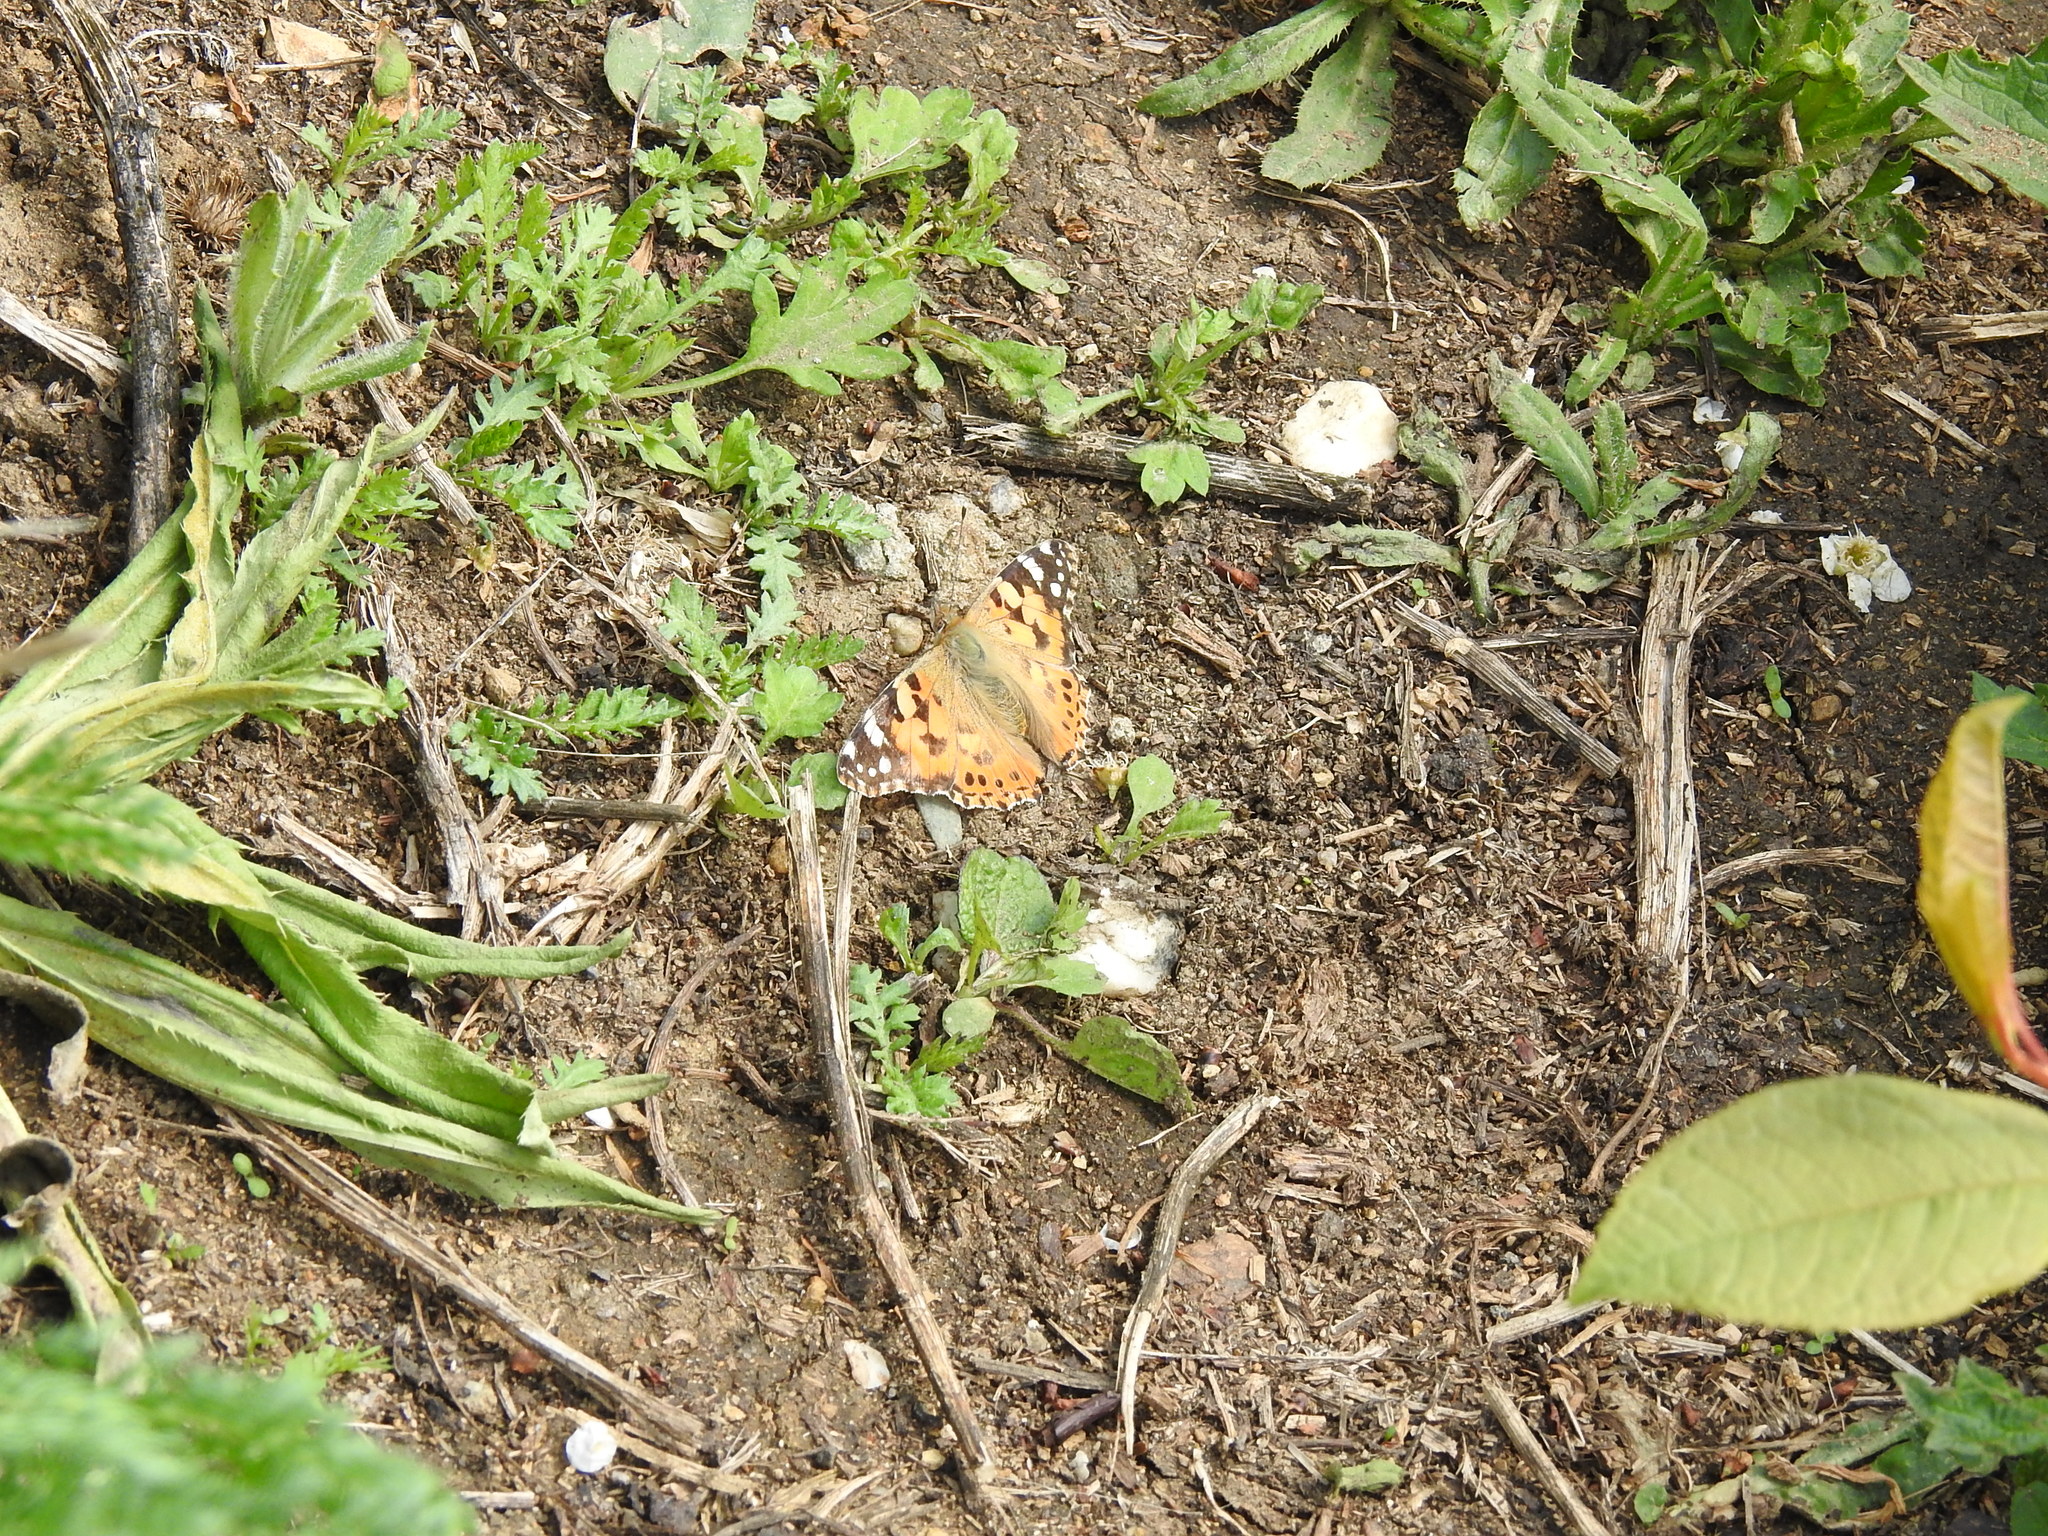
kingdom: Animalia
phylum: Arthropoda
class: Insecta
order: Lepidoptera
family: Nymphalidae
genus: Vanessa
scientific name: Vanessa cardui
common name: Painted lady
